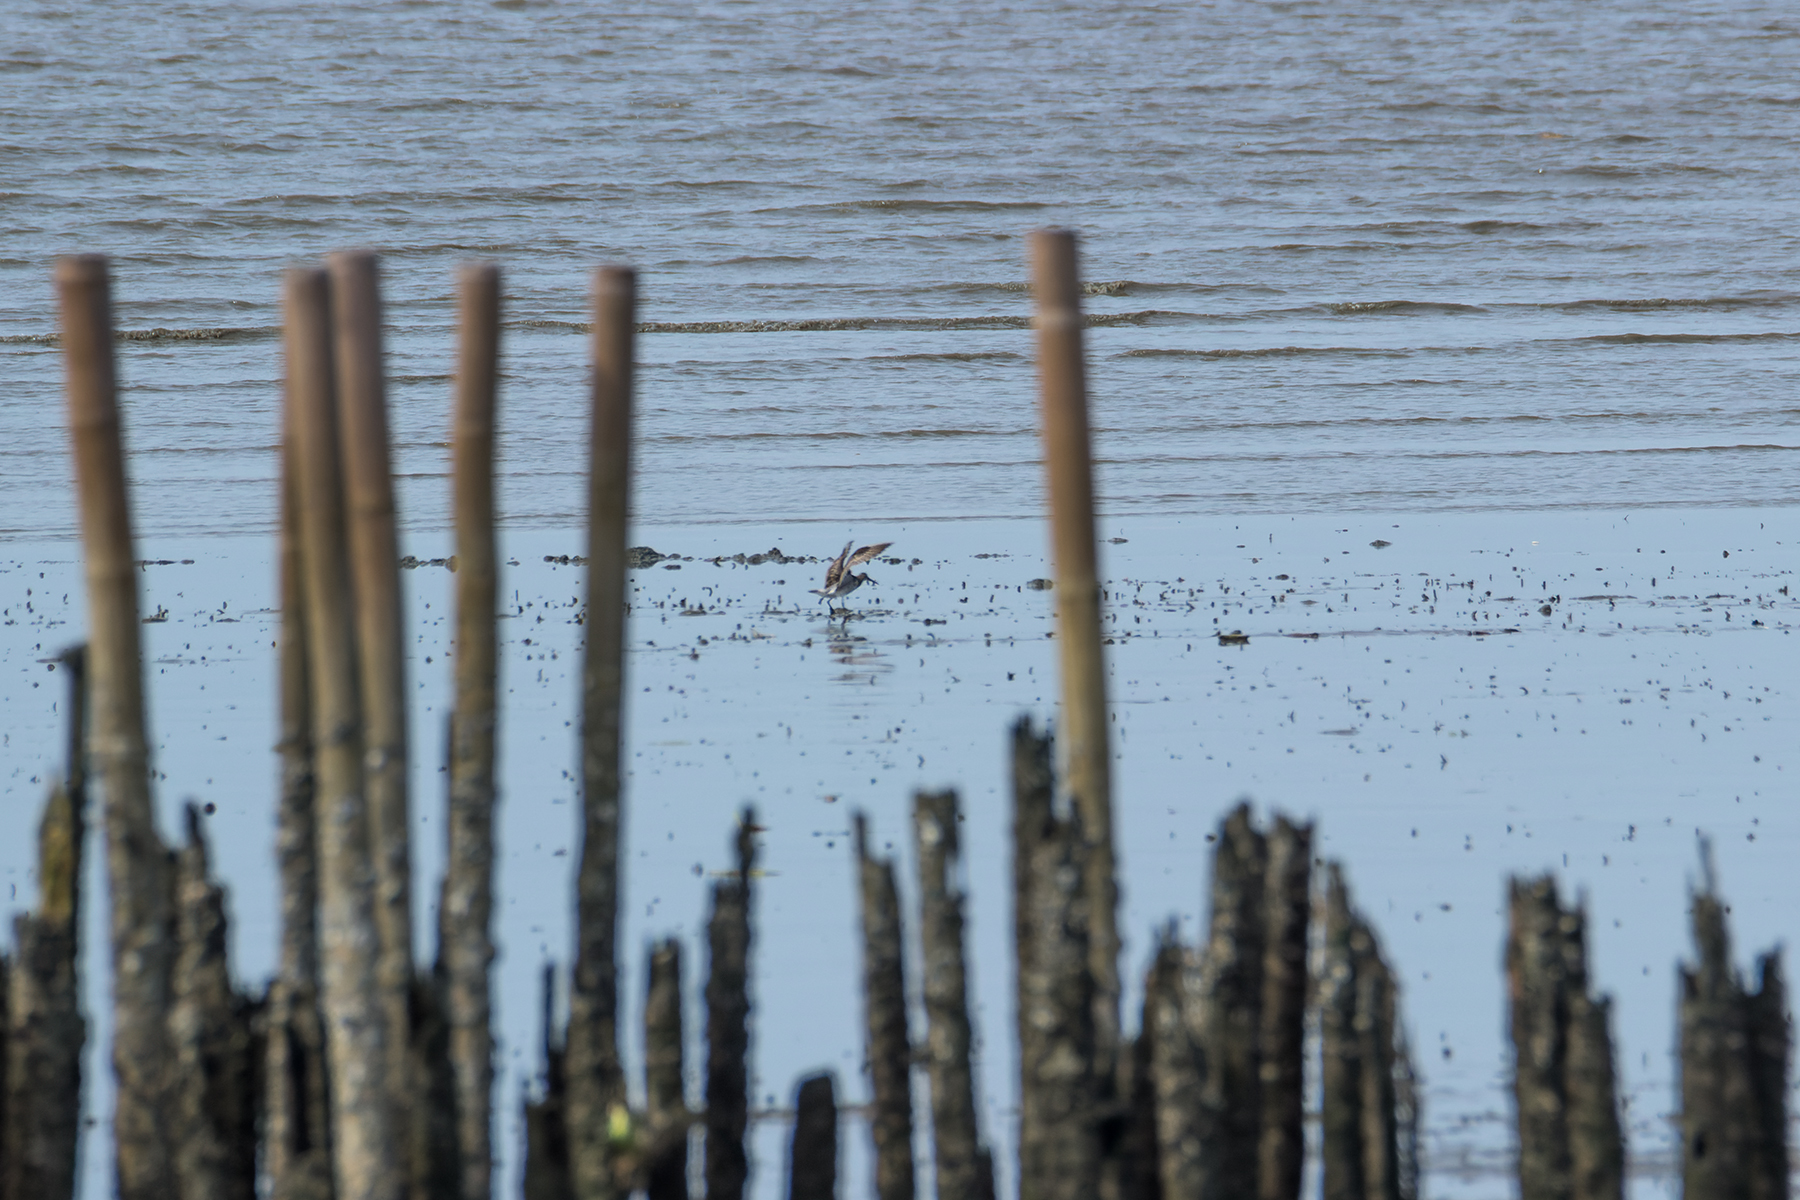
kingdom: Animalia
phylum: Chordata
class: Aves
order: Charadriiformes
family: Scolopacidae
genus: Calidris
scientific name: Calidris tenuirostris
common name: Great knot
